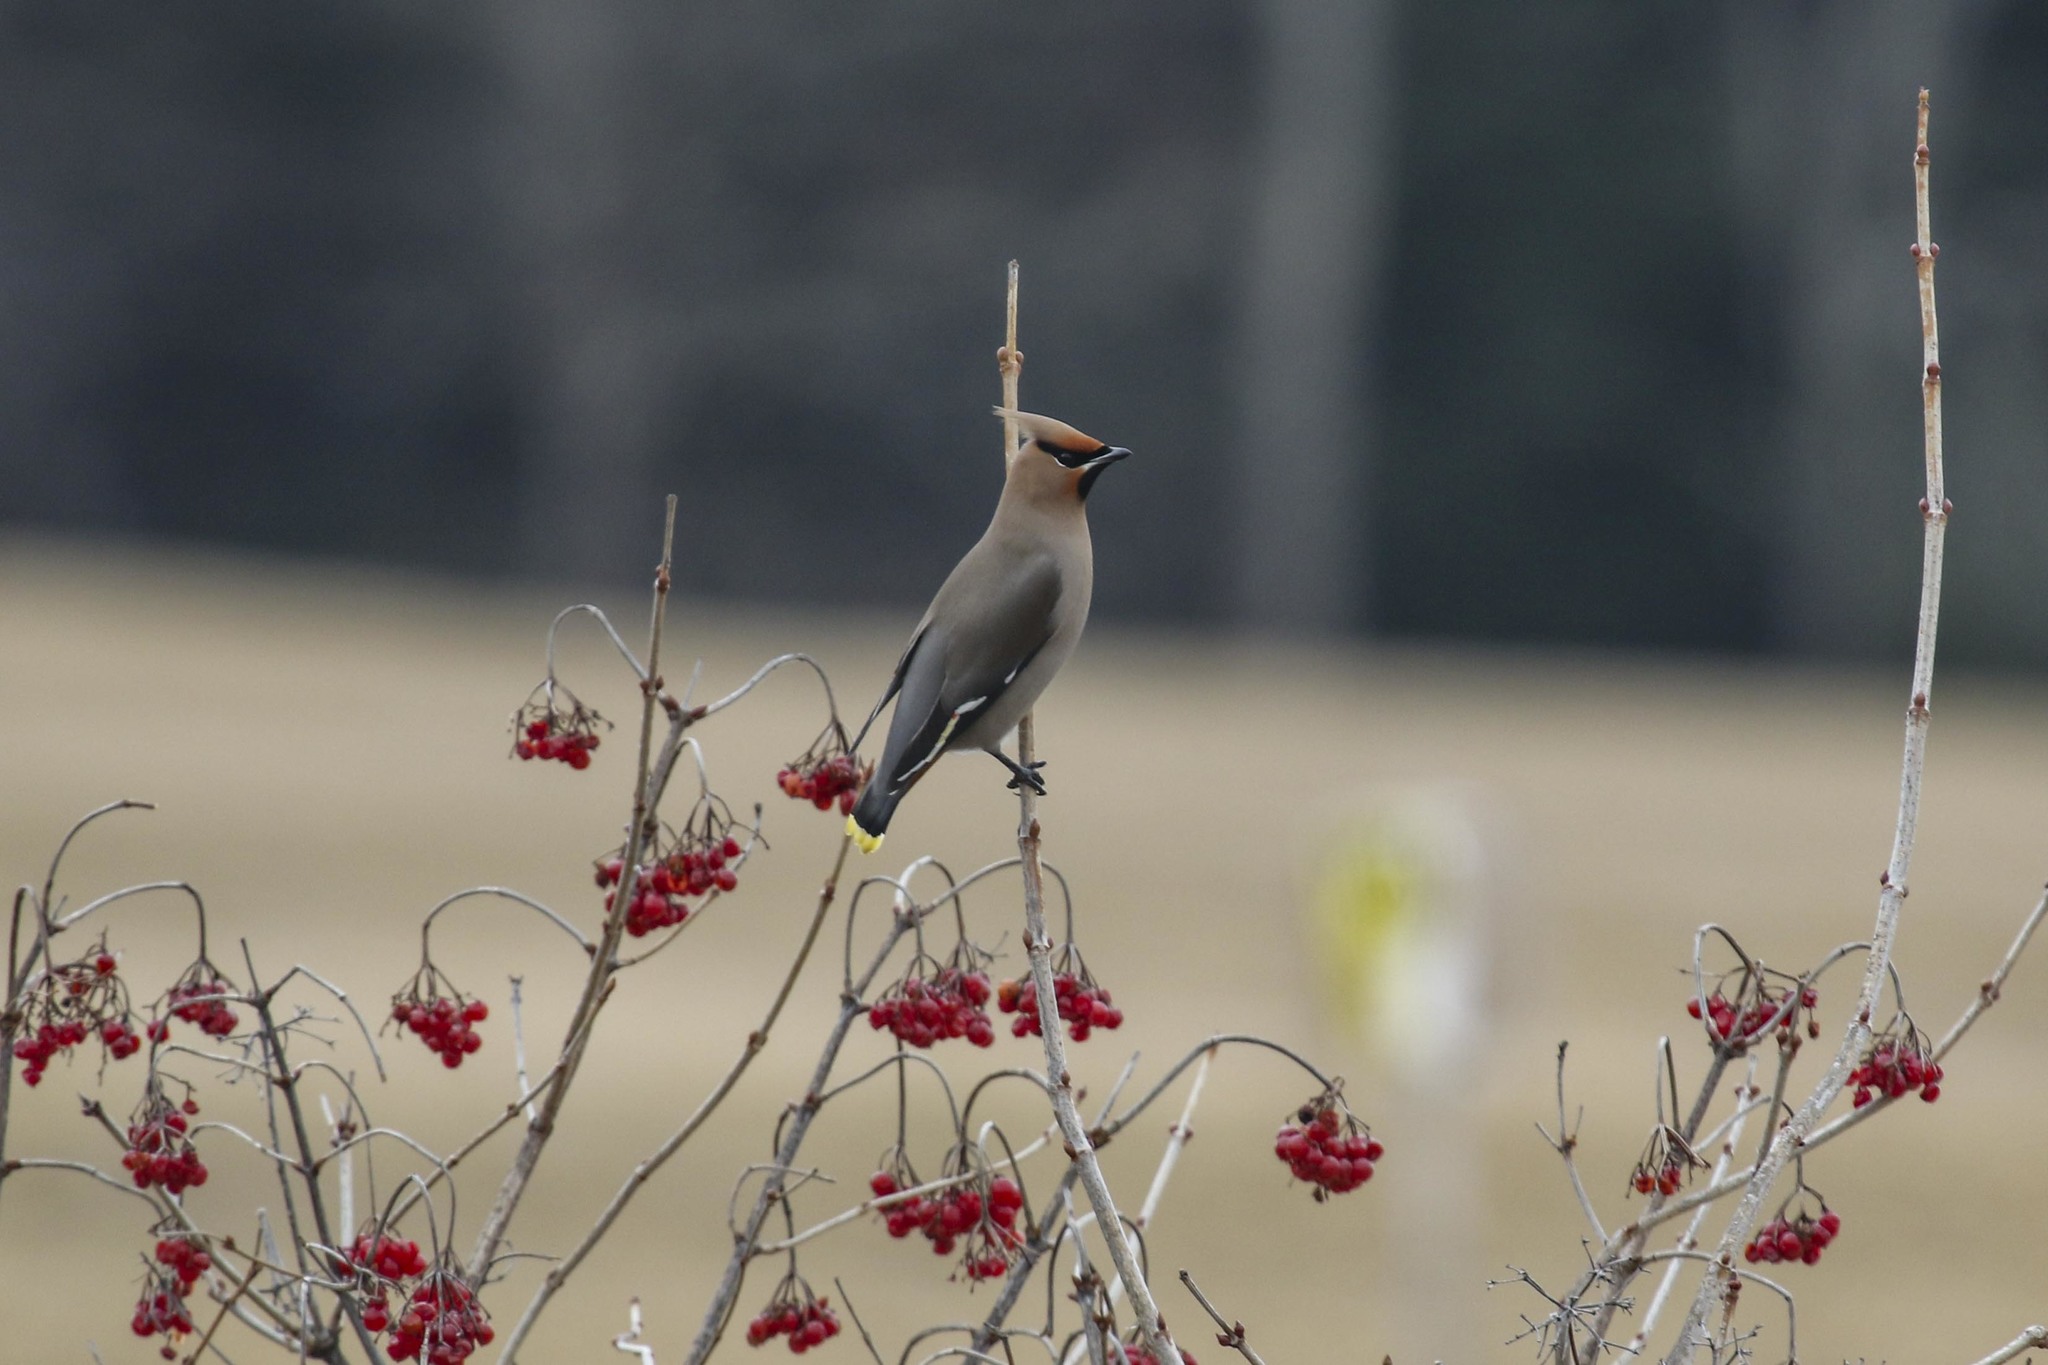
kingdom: Animalia
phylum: Chordata
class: Aves
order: Passeriformes
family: Bombycillidae
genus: Bombycilla
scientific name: Bombycilla garrulus
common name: Bohemian waxwing
